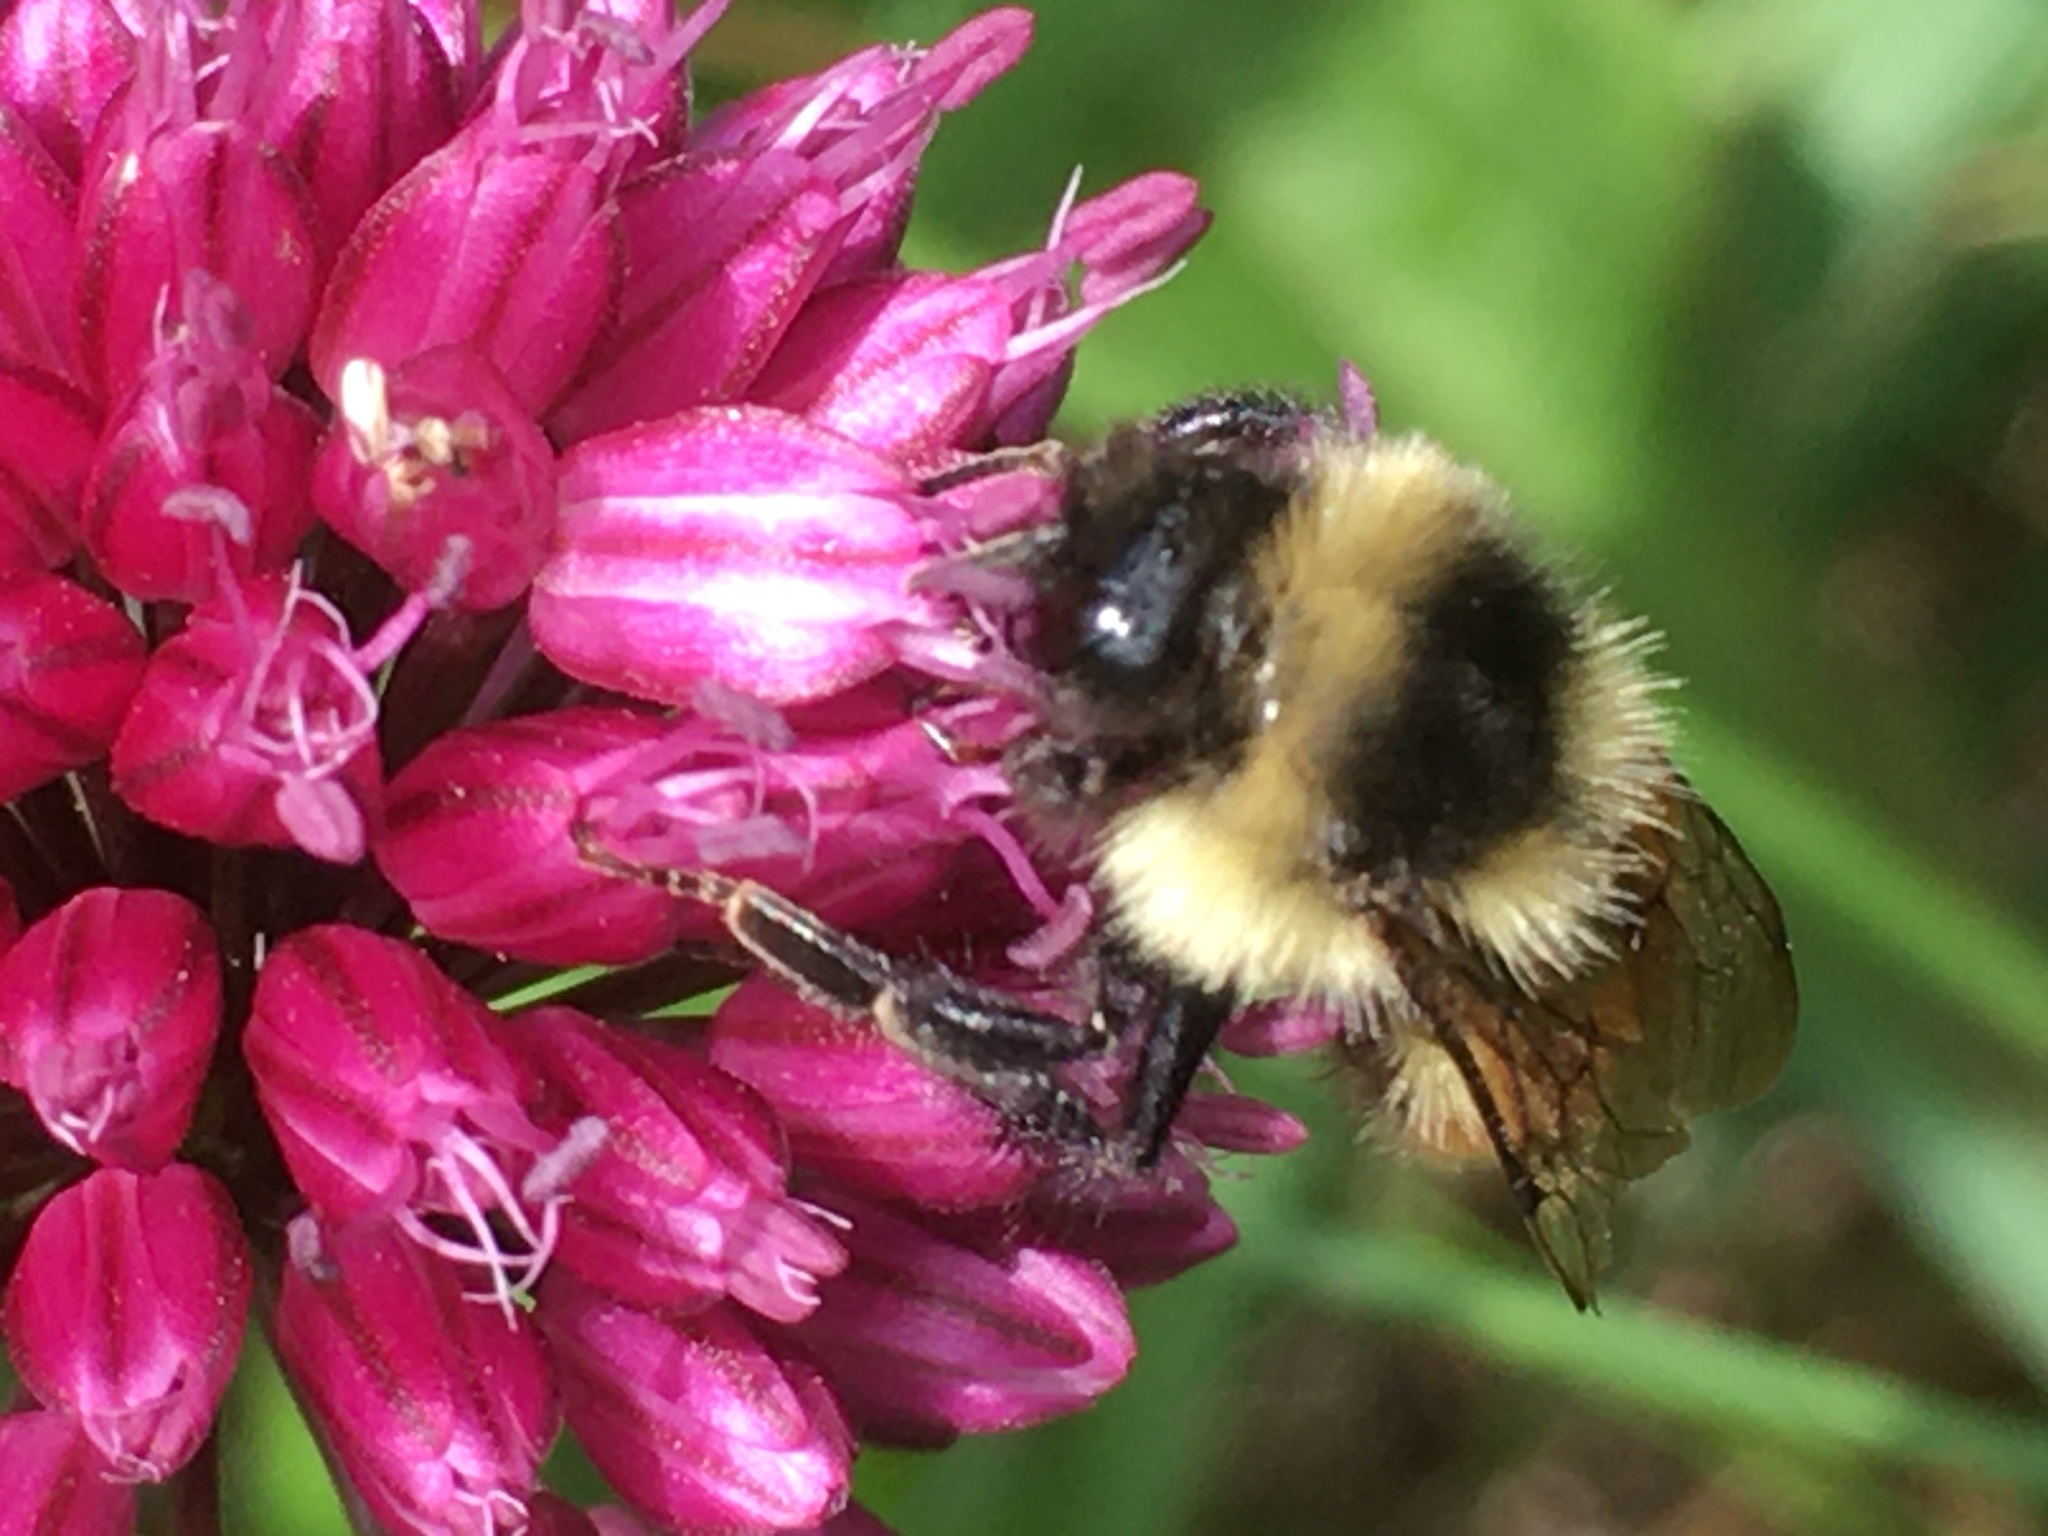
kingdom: Animalia
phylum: Arthropoda
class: Insecta
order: Hymenoptera
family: Apidae
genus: Bombus
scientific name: Bombus ternarius
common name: Tri-colored bumble bee
